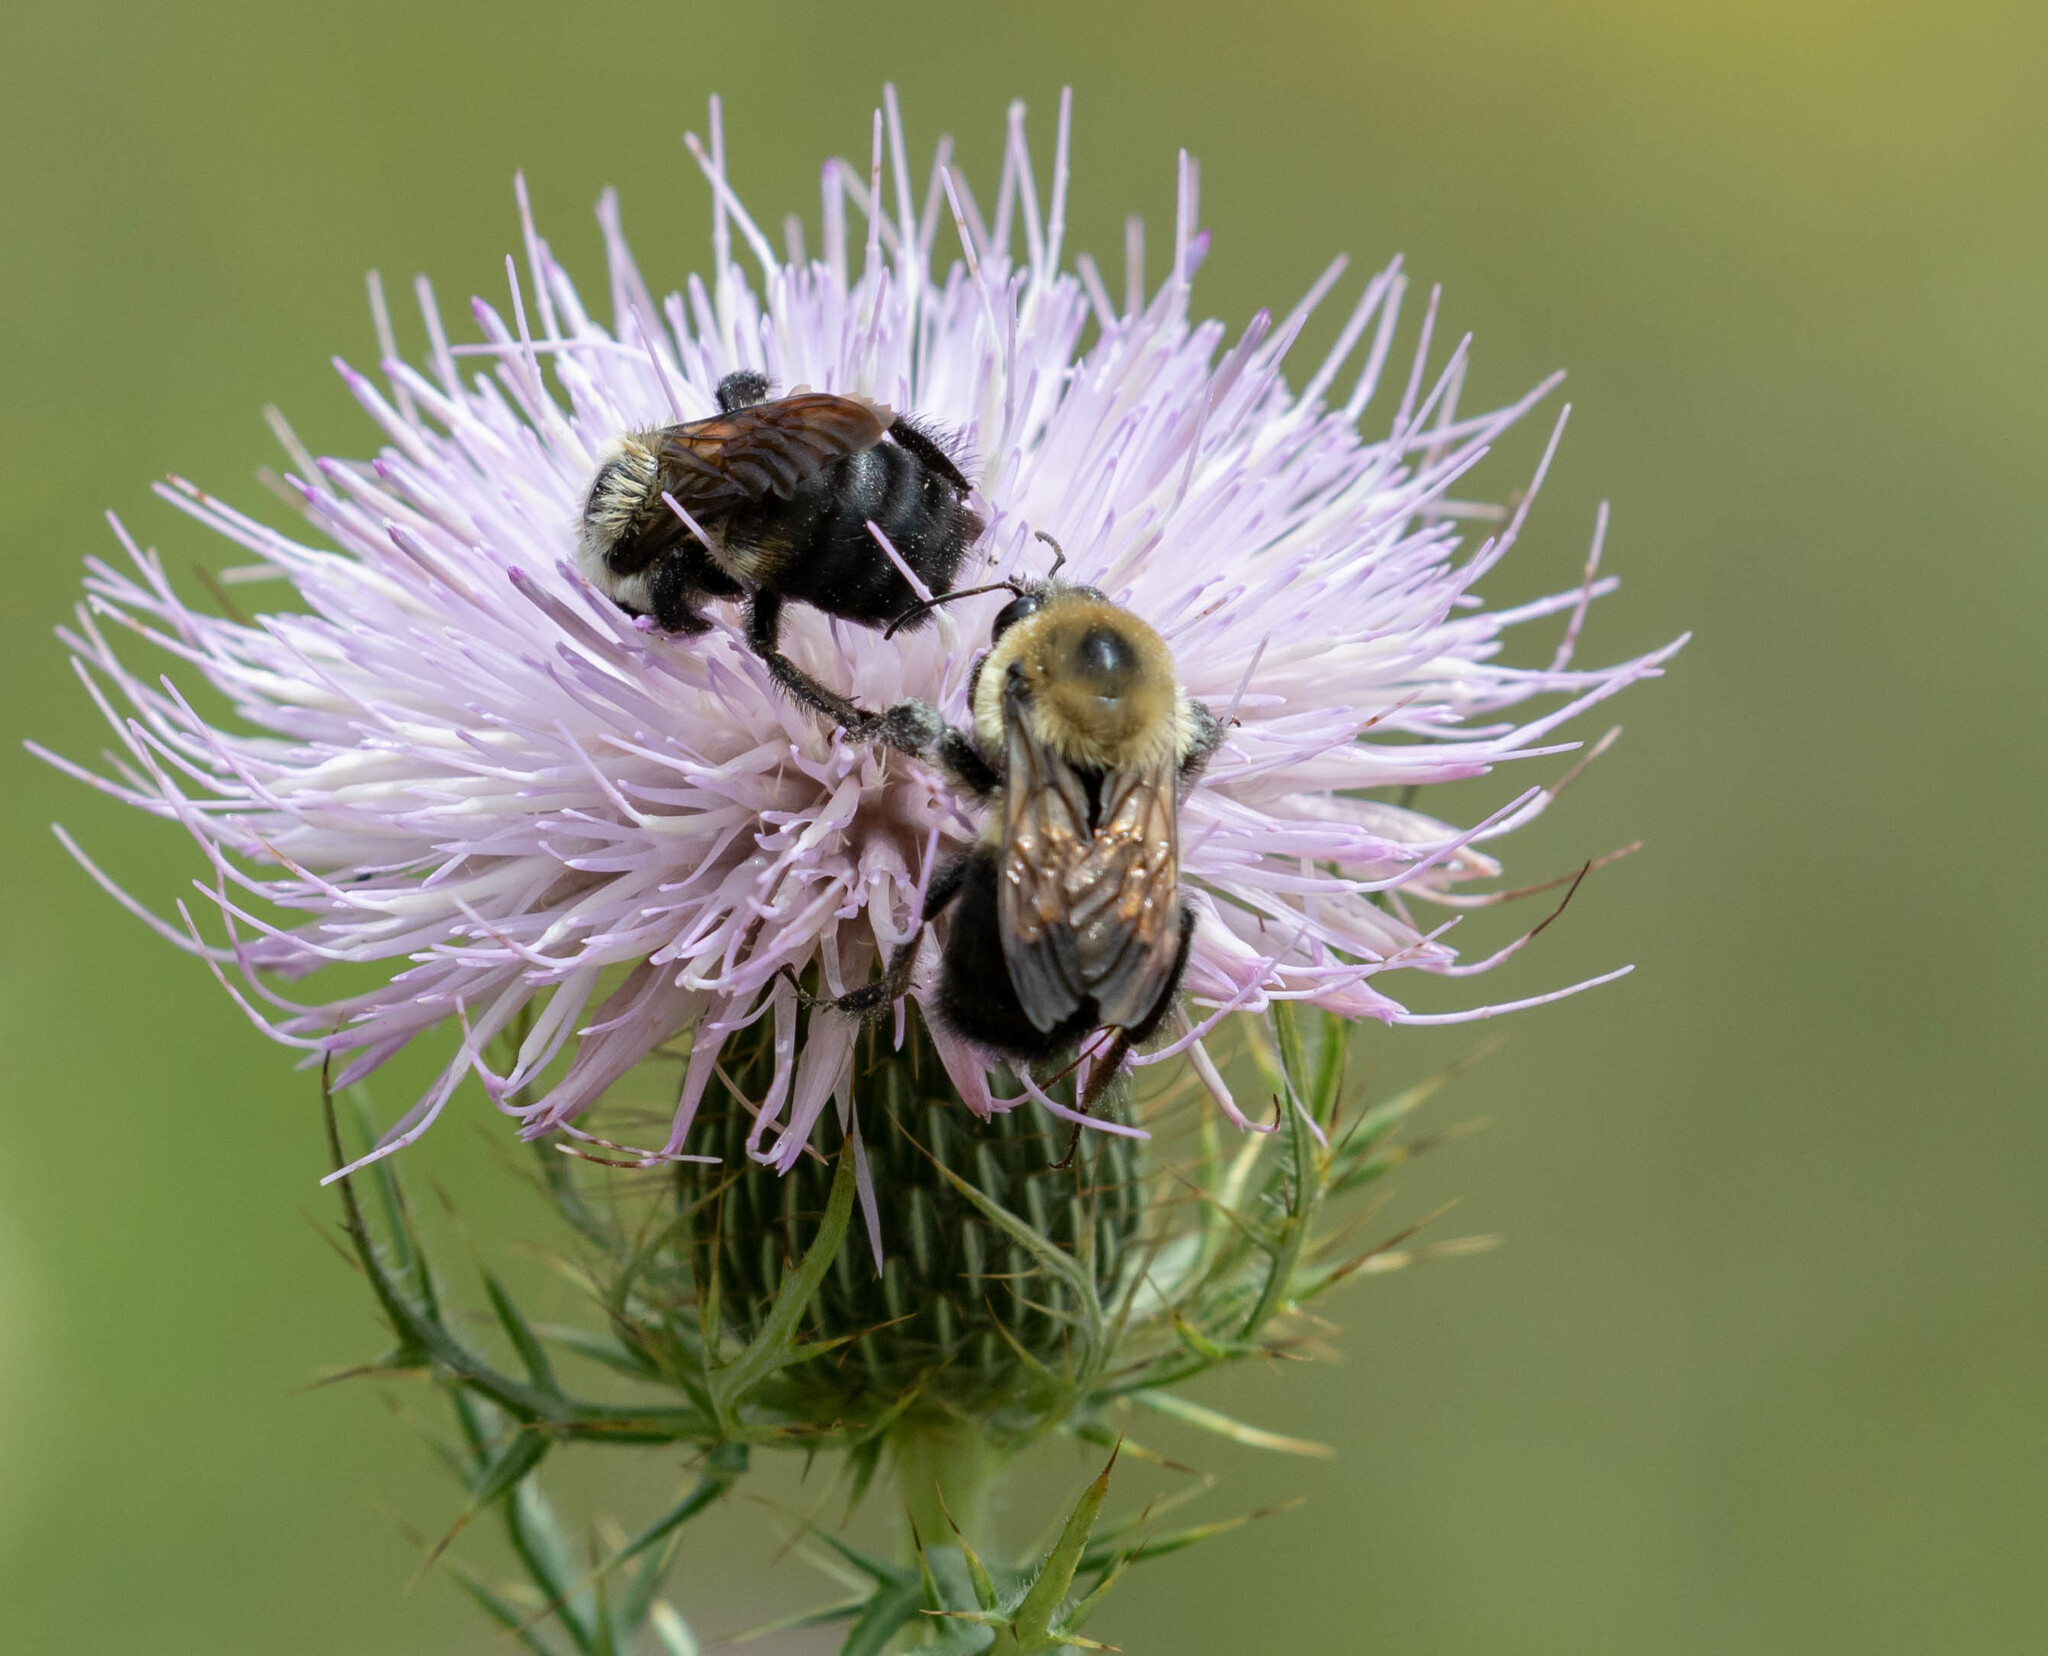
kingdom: Animalia
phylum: Arthropoda
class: Insecta
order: Hymenoptera
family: Apidae
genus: Bombus
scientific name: Bombus griseocollis
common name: Brown-belted bumble bee
